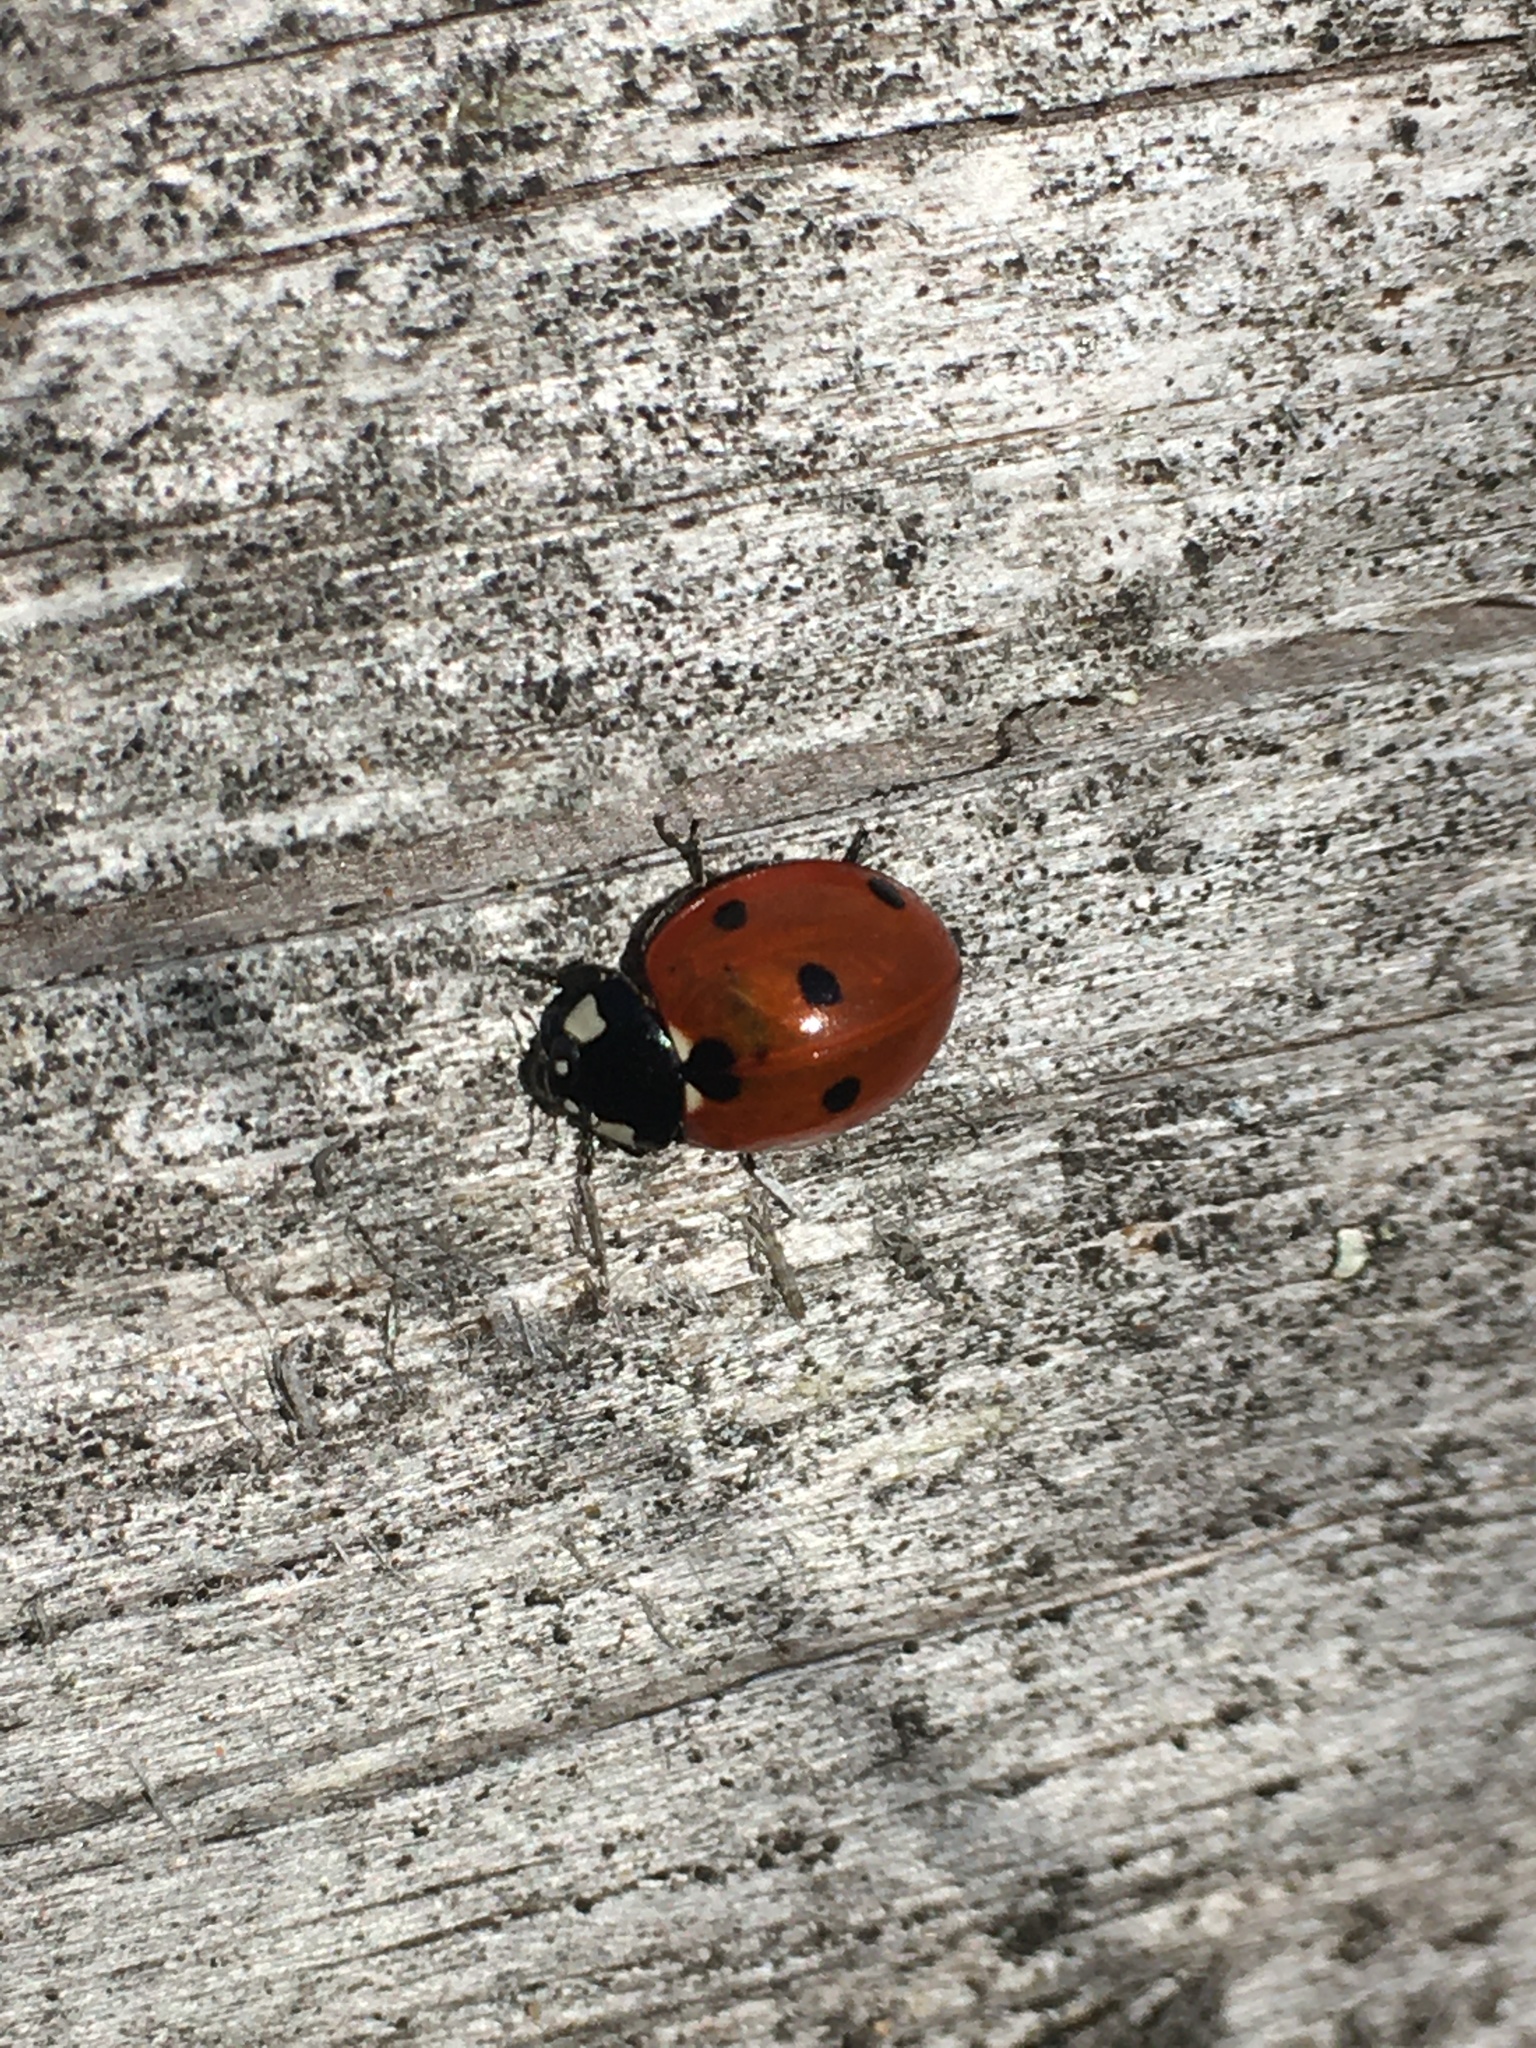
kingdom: Animalia
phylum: Arthropoda
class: Insecta
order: Coleoptera
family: Coccinellidae
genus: Coccinella
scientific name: Coccinella septempunctata
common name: Sevenspotted lady beetle
